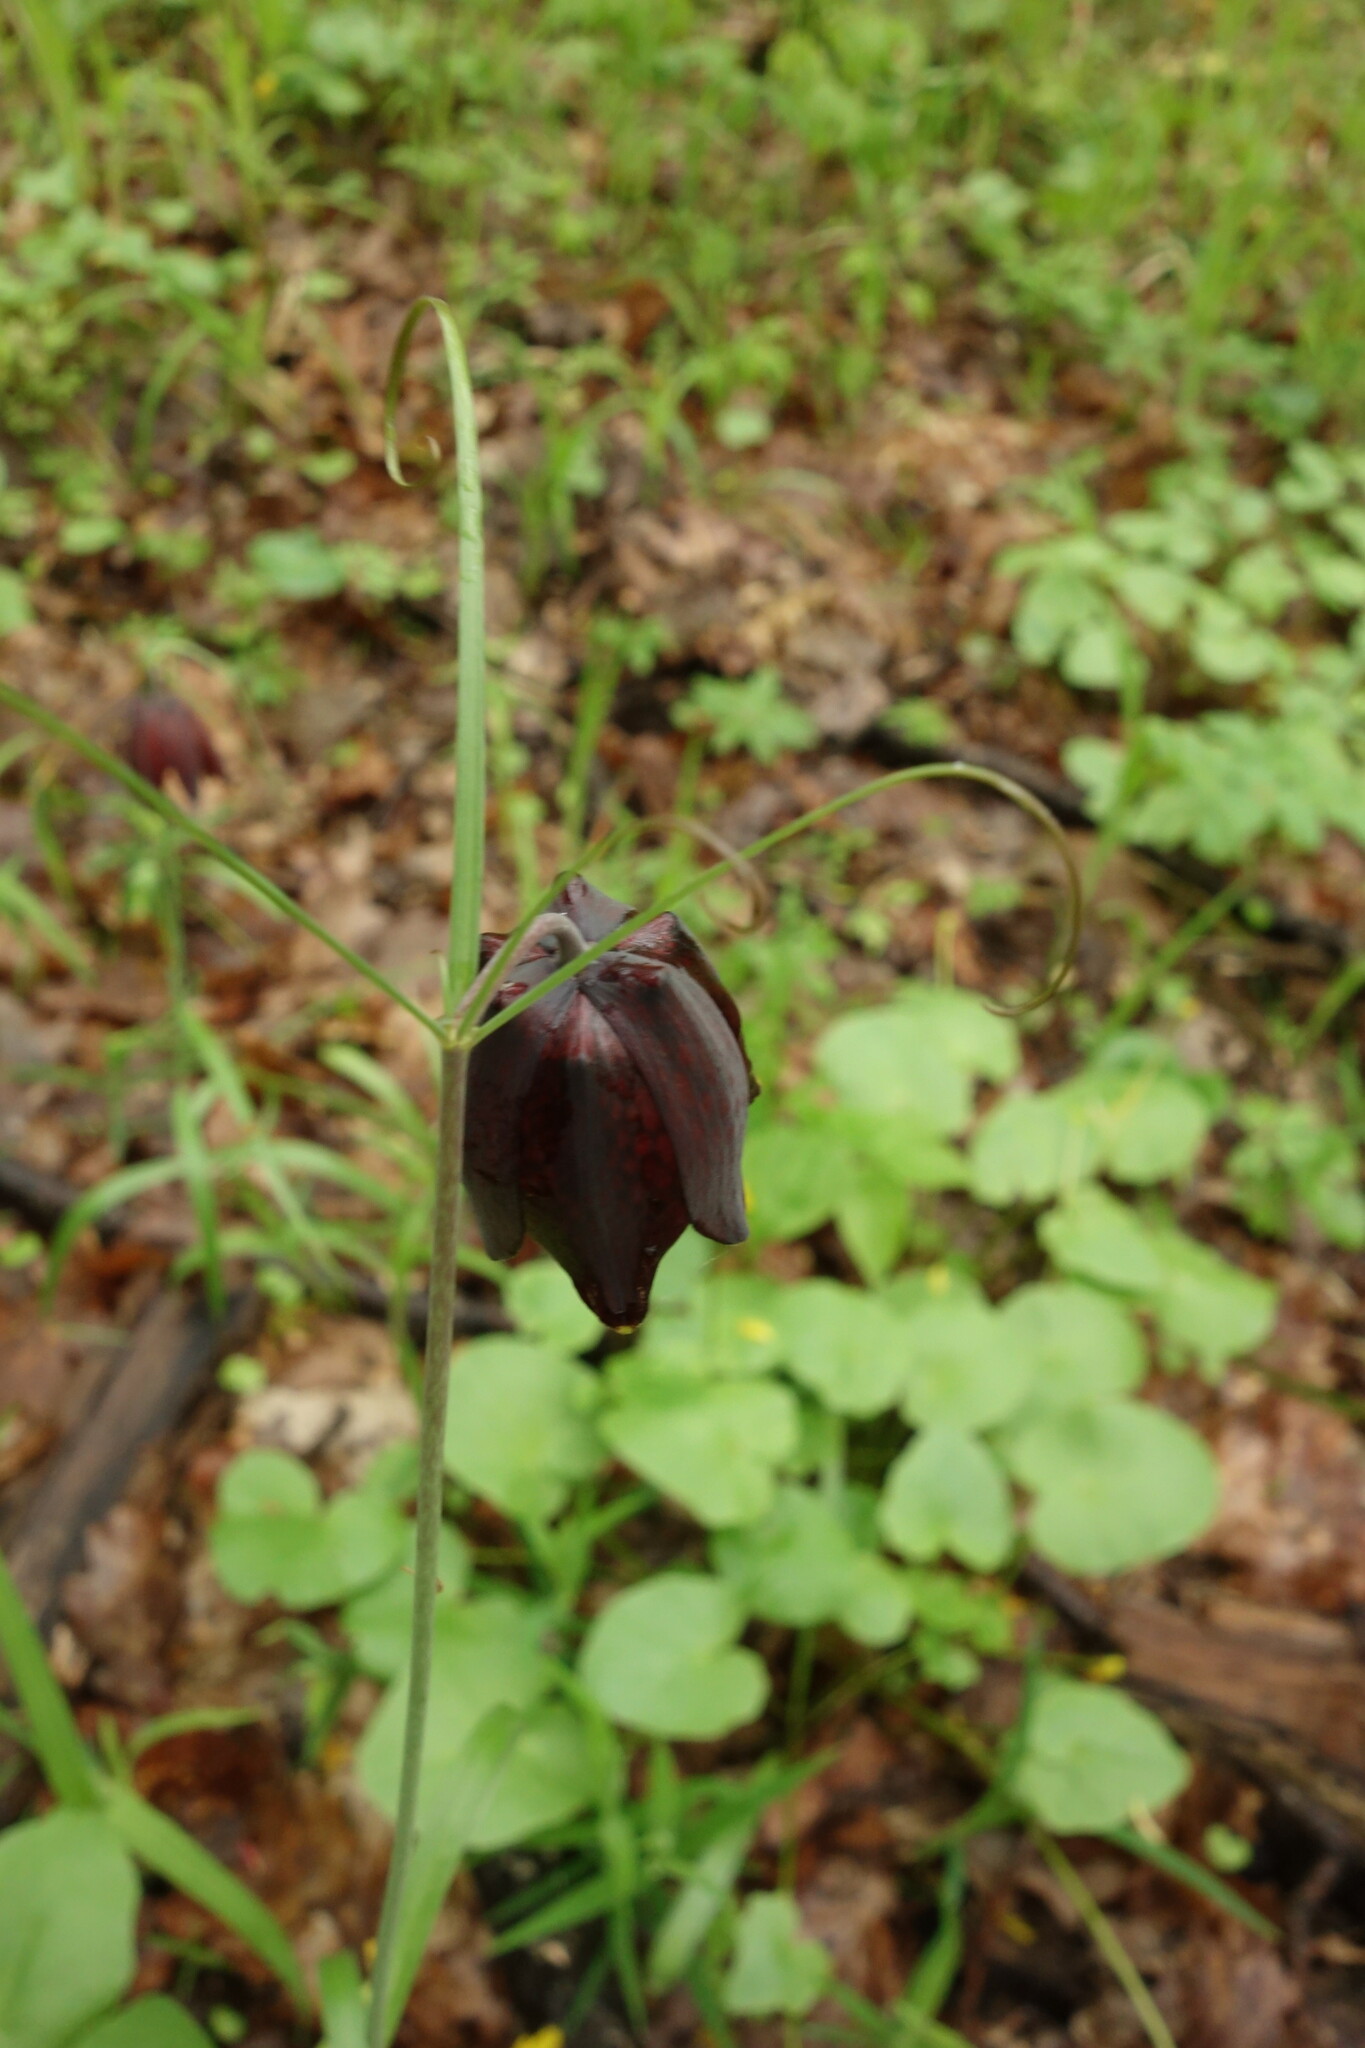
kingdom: Plantae
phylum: Tracheophyta
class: Liliopsida
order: Liliales
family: Liliaceae
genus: Fritillaria
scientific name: Fritillaria ruthenica
